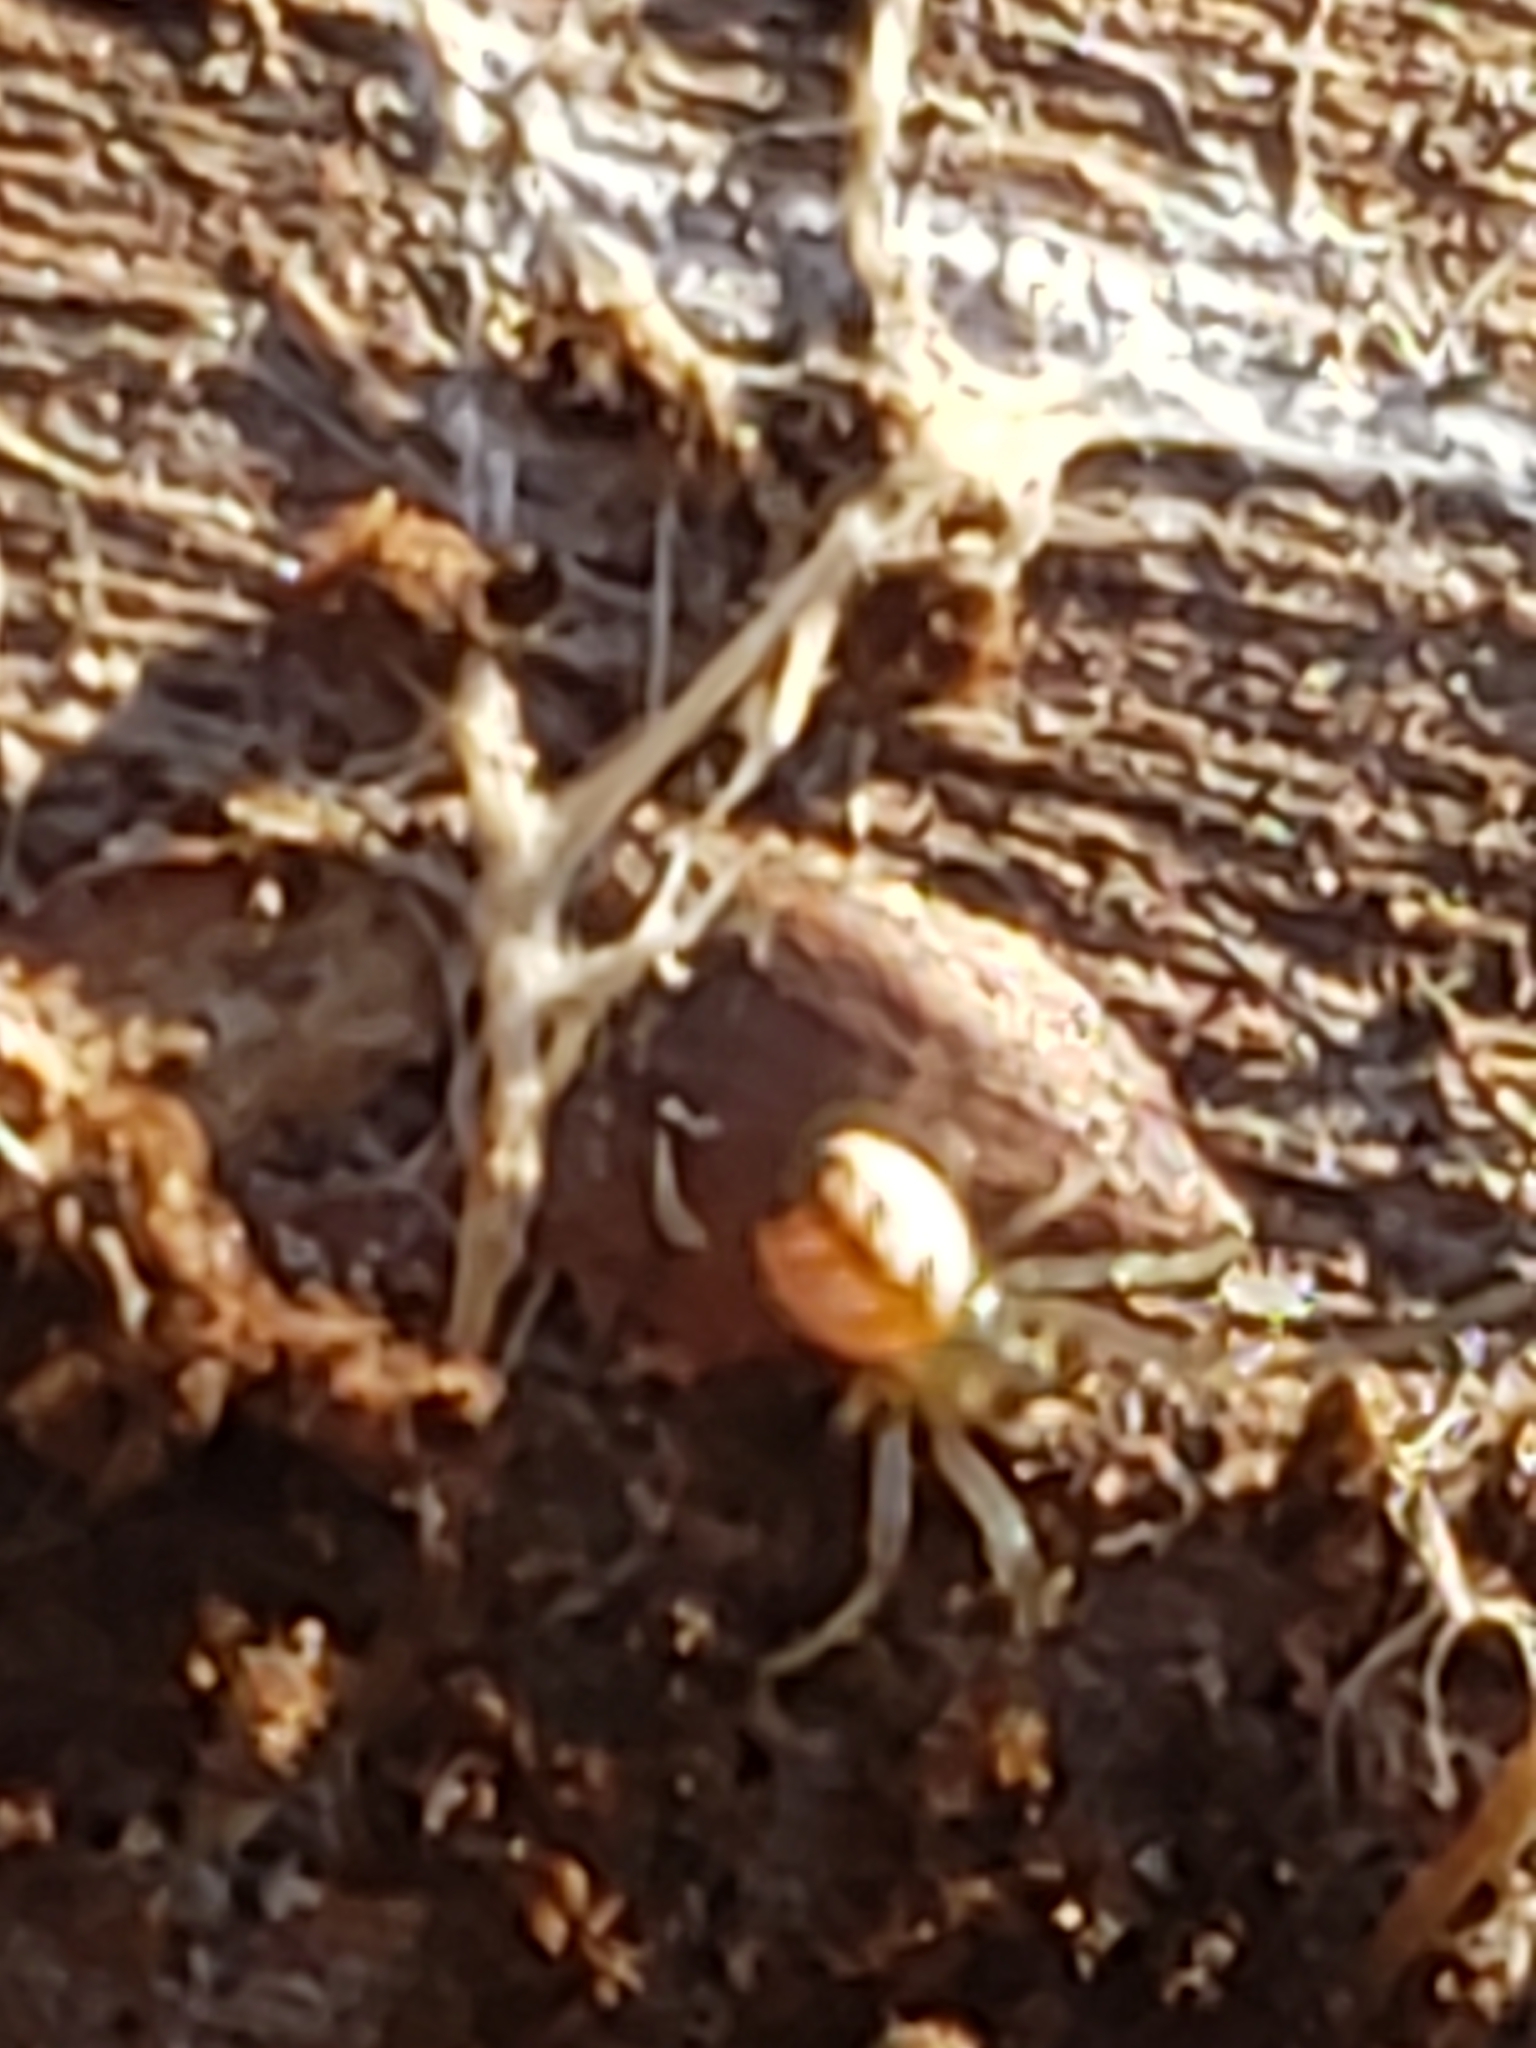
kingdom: Animalia
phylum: Arthropoda
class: Arachnida
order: Araneae
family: Tetragnathidae
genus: Leucauge
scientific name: Leucauge venusta
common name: Longjawed orb weavers
